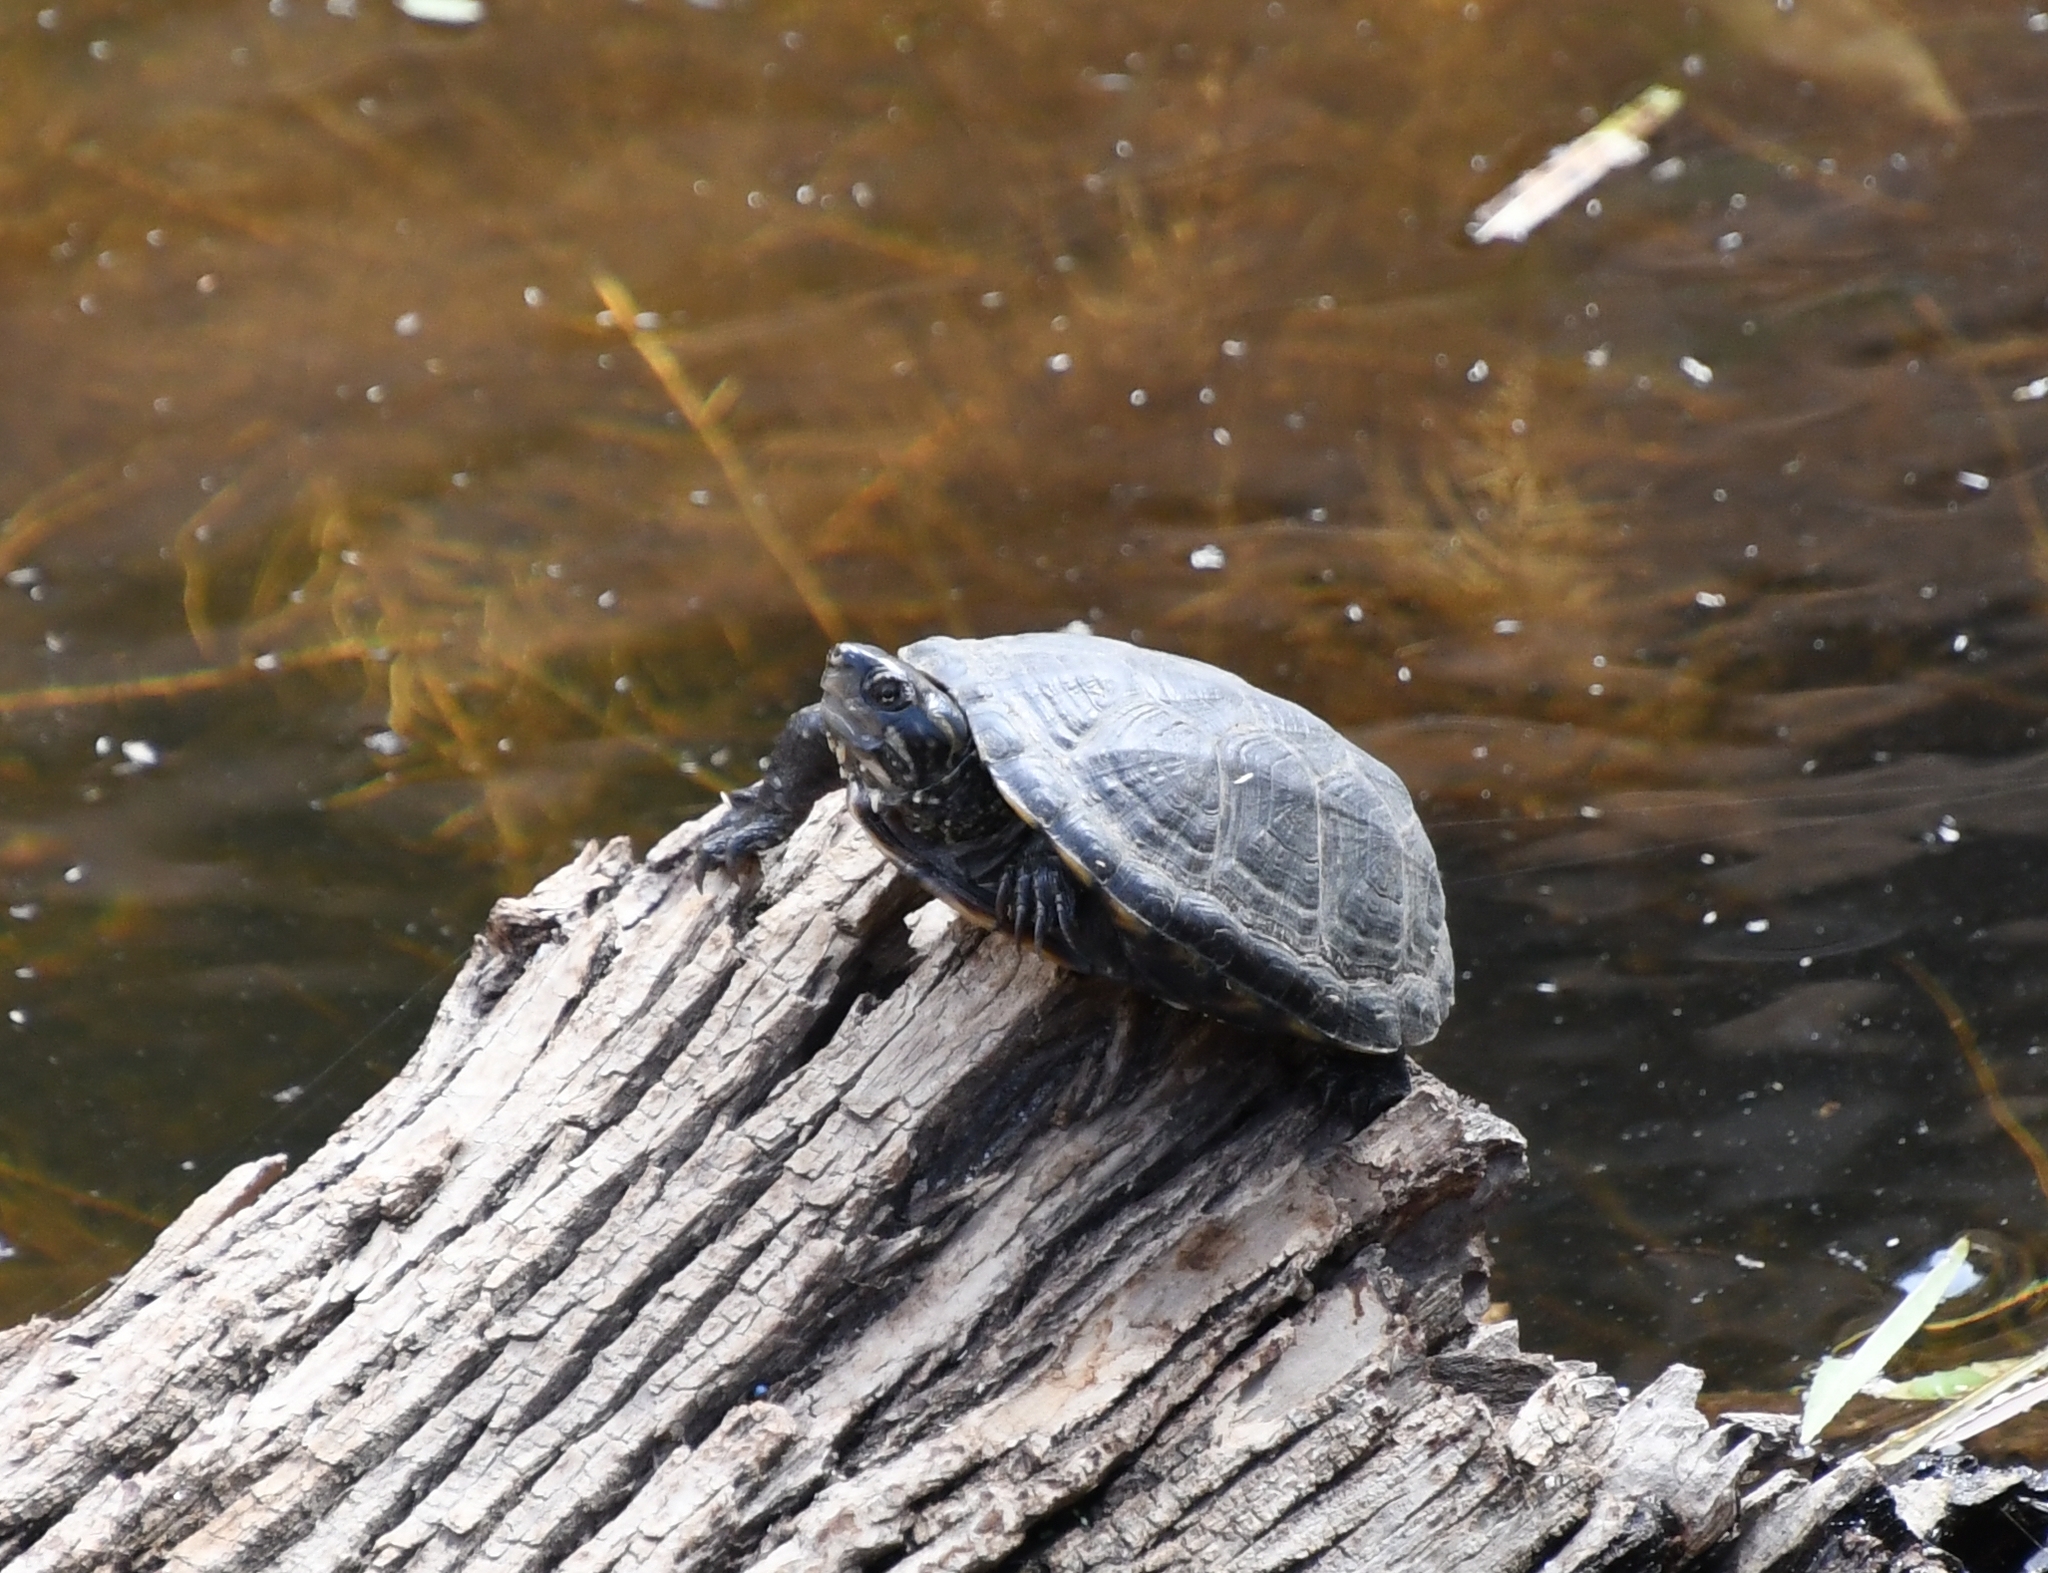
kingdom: Animalia
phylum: Chordata
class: Testudines
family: Kinosternidae
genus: Kinosternon
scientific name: Kinosternon sonoriense
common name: Sonora mud turtle
